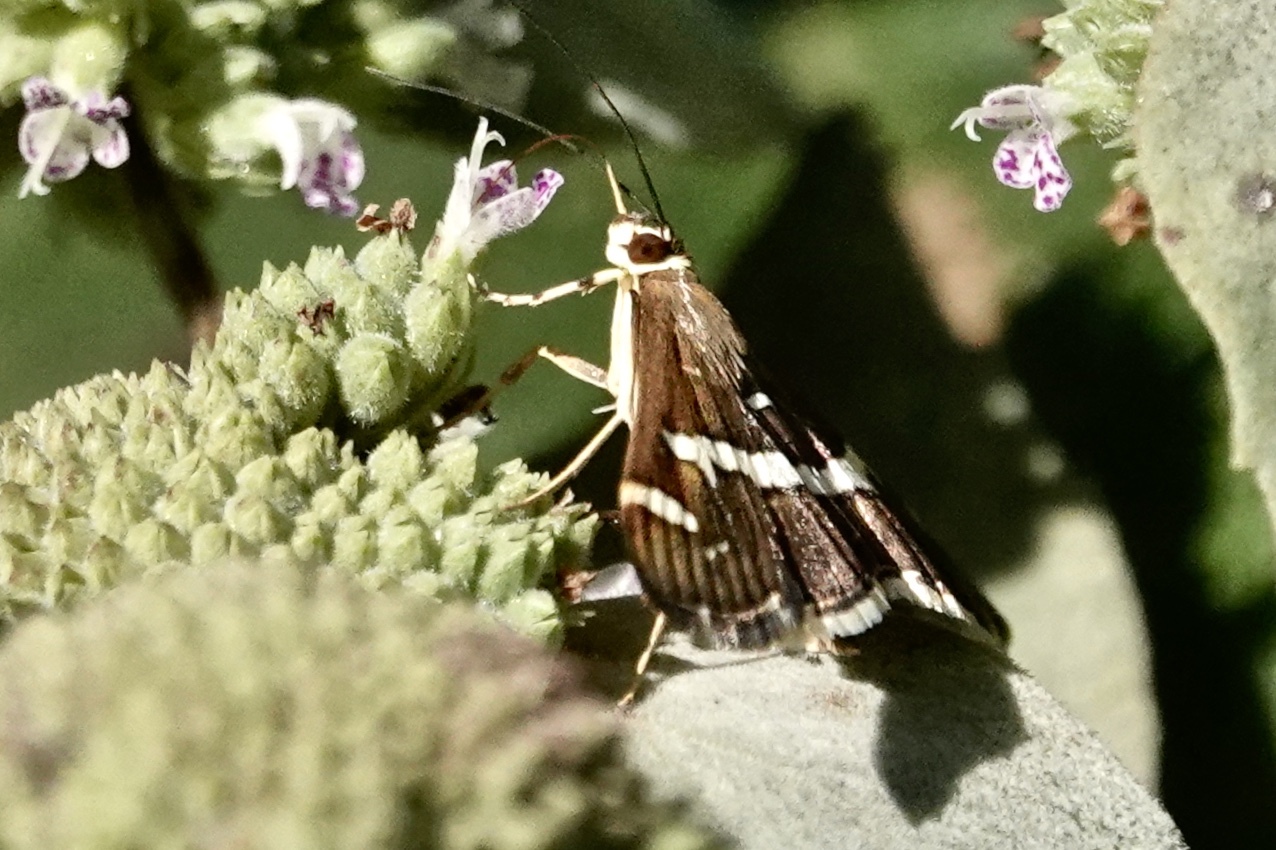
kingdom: Animalia
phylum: Arthropoda
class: Insecta
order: Lepidoptera
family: Crambidae
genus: Spoladea
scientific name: Spoladea recurvalis
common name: Beet webworm moth
